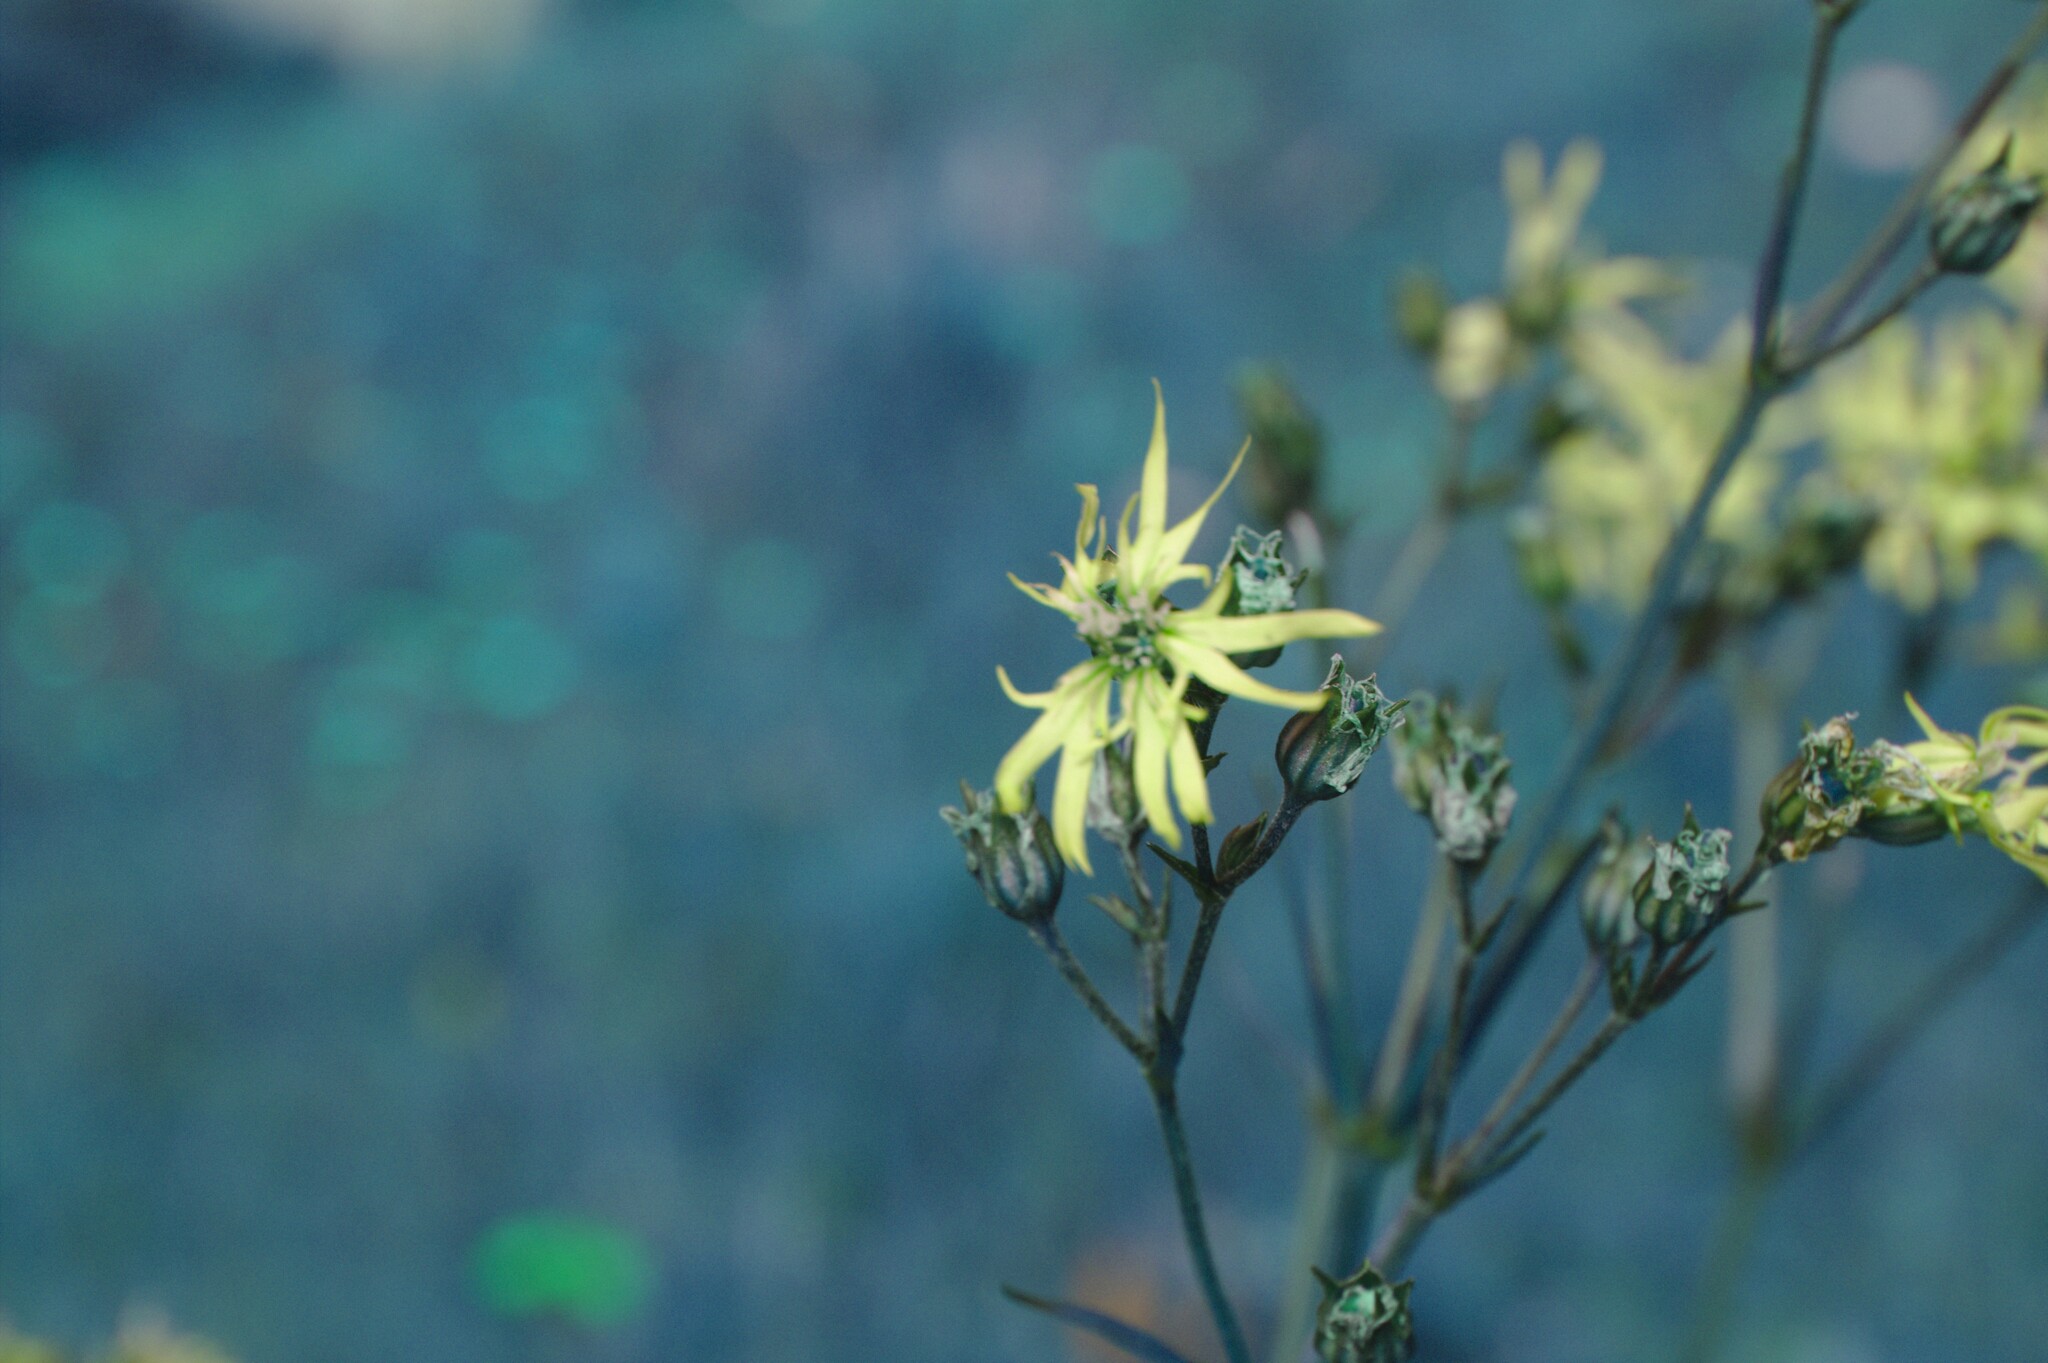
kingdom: Plantae
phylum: Tracheophyta
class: Magnoliopsida
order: Caryophyllales
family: Caryophyllaceae
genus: Silene
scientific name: Silene flos-cuculi
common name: Ragged-robin
